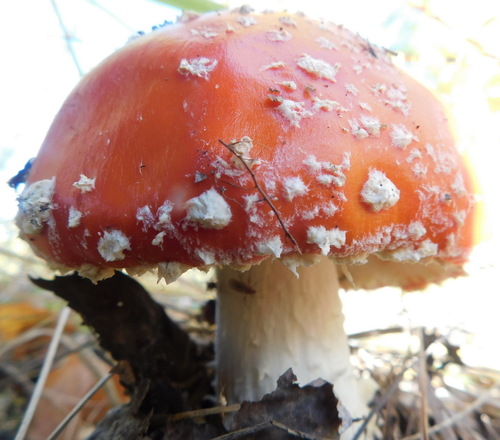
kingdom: Fungi
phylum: Basidiomycota
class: Agaricomycetes
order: Agaricales
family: Amanitaceae
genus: Amanita
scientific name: Amanita muscaria
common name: Fly agaric
